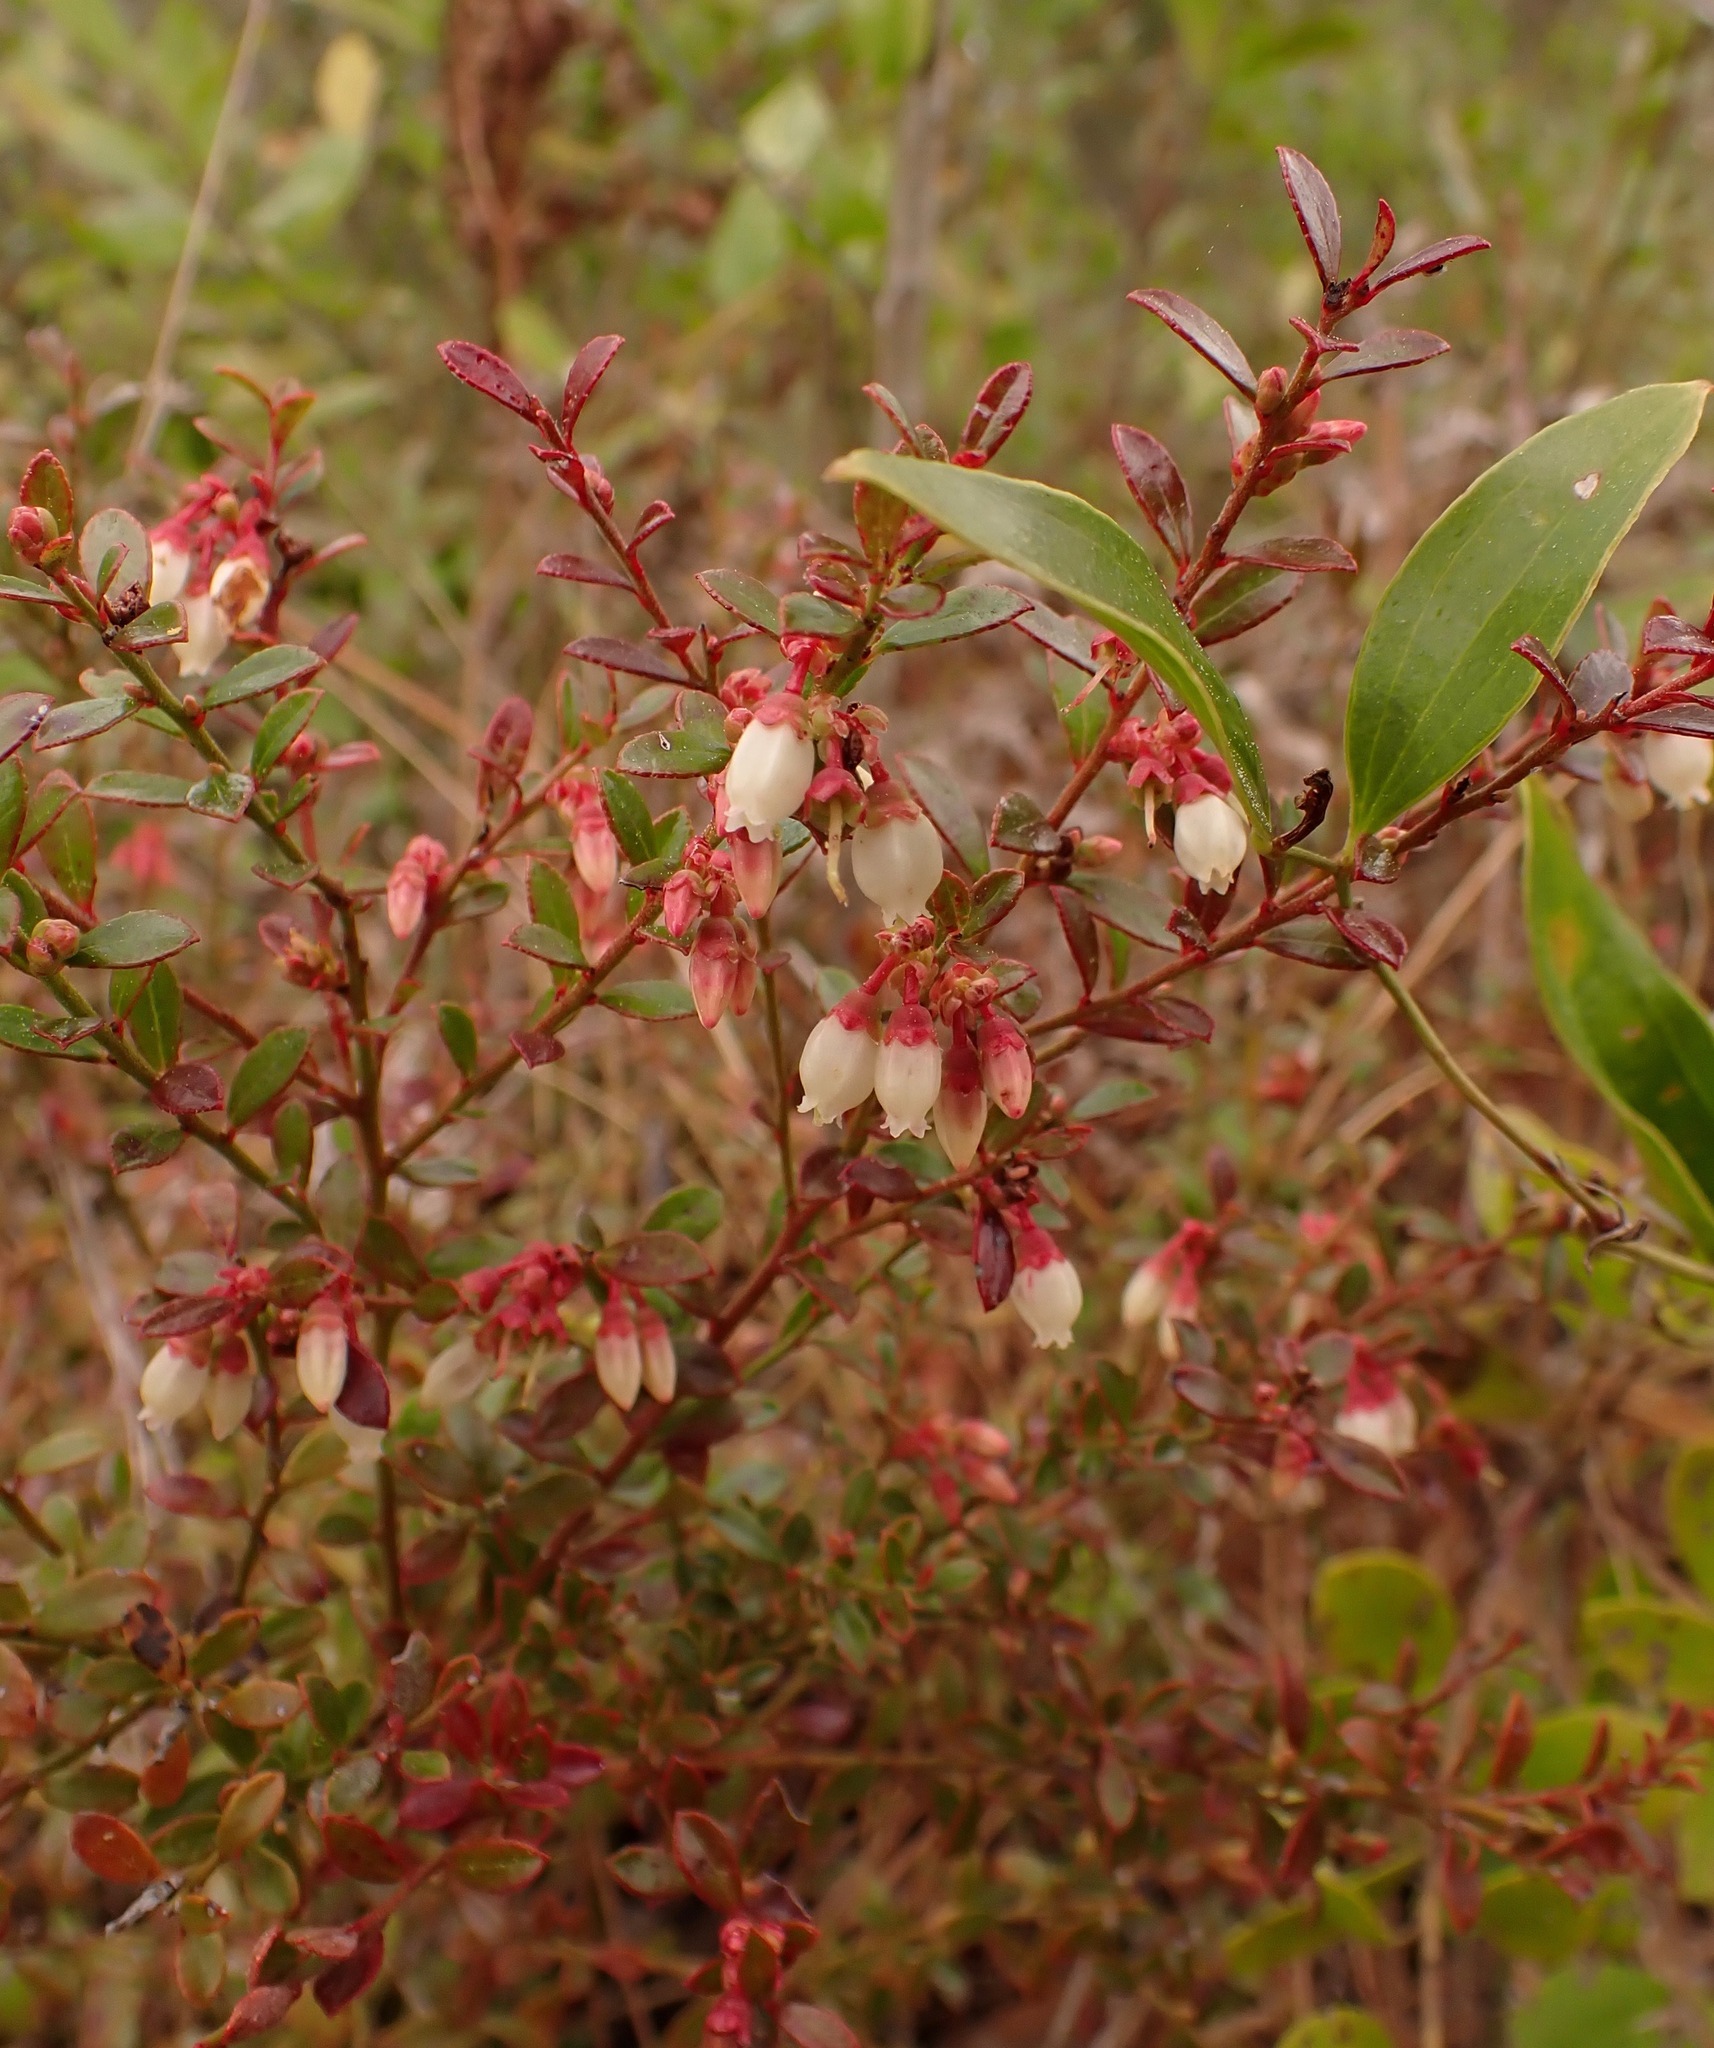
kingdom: Plantae
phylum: Tracheophyta
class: Magnoliopsida
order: Ericales
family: Ericaceae
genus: Vaccinium
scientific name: Vaccinium myrsinites
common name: Evergreen blueberry
